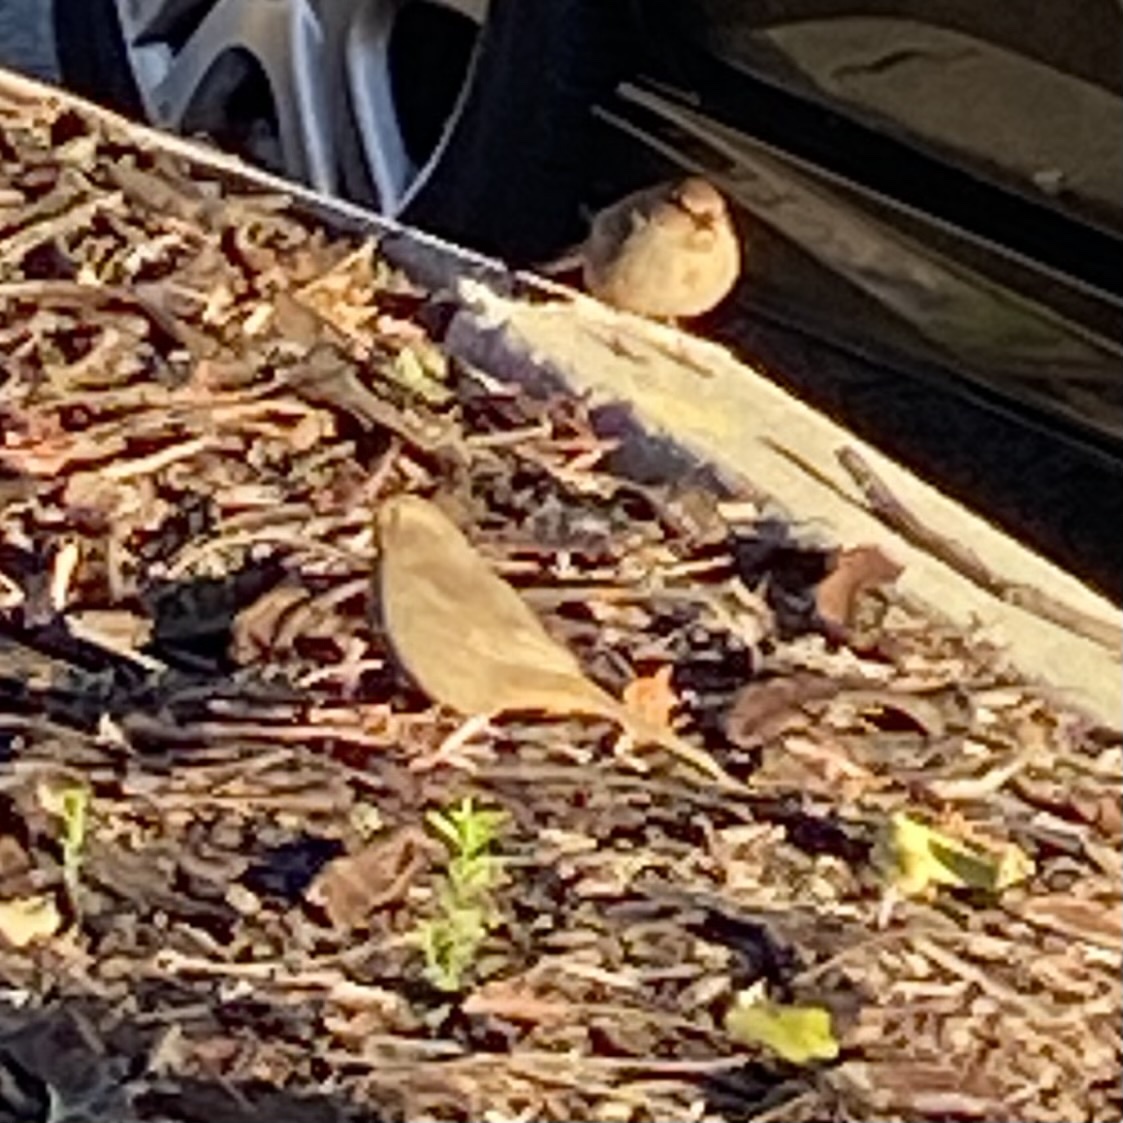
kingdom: Animalia
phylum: Chordata
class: Aves
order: Passeriformes
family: Passerellidae
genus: Melozone
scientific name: Melozone crissalis
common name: California towhee
